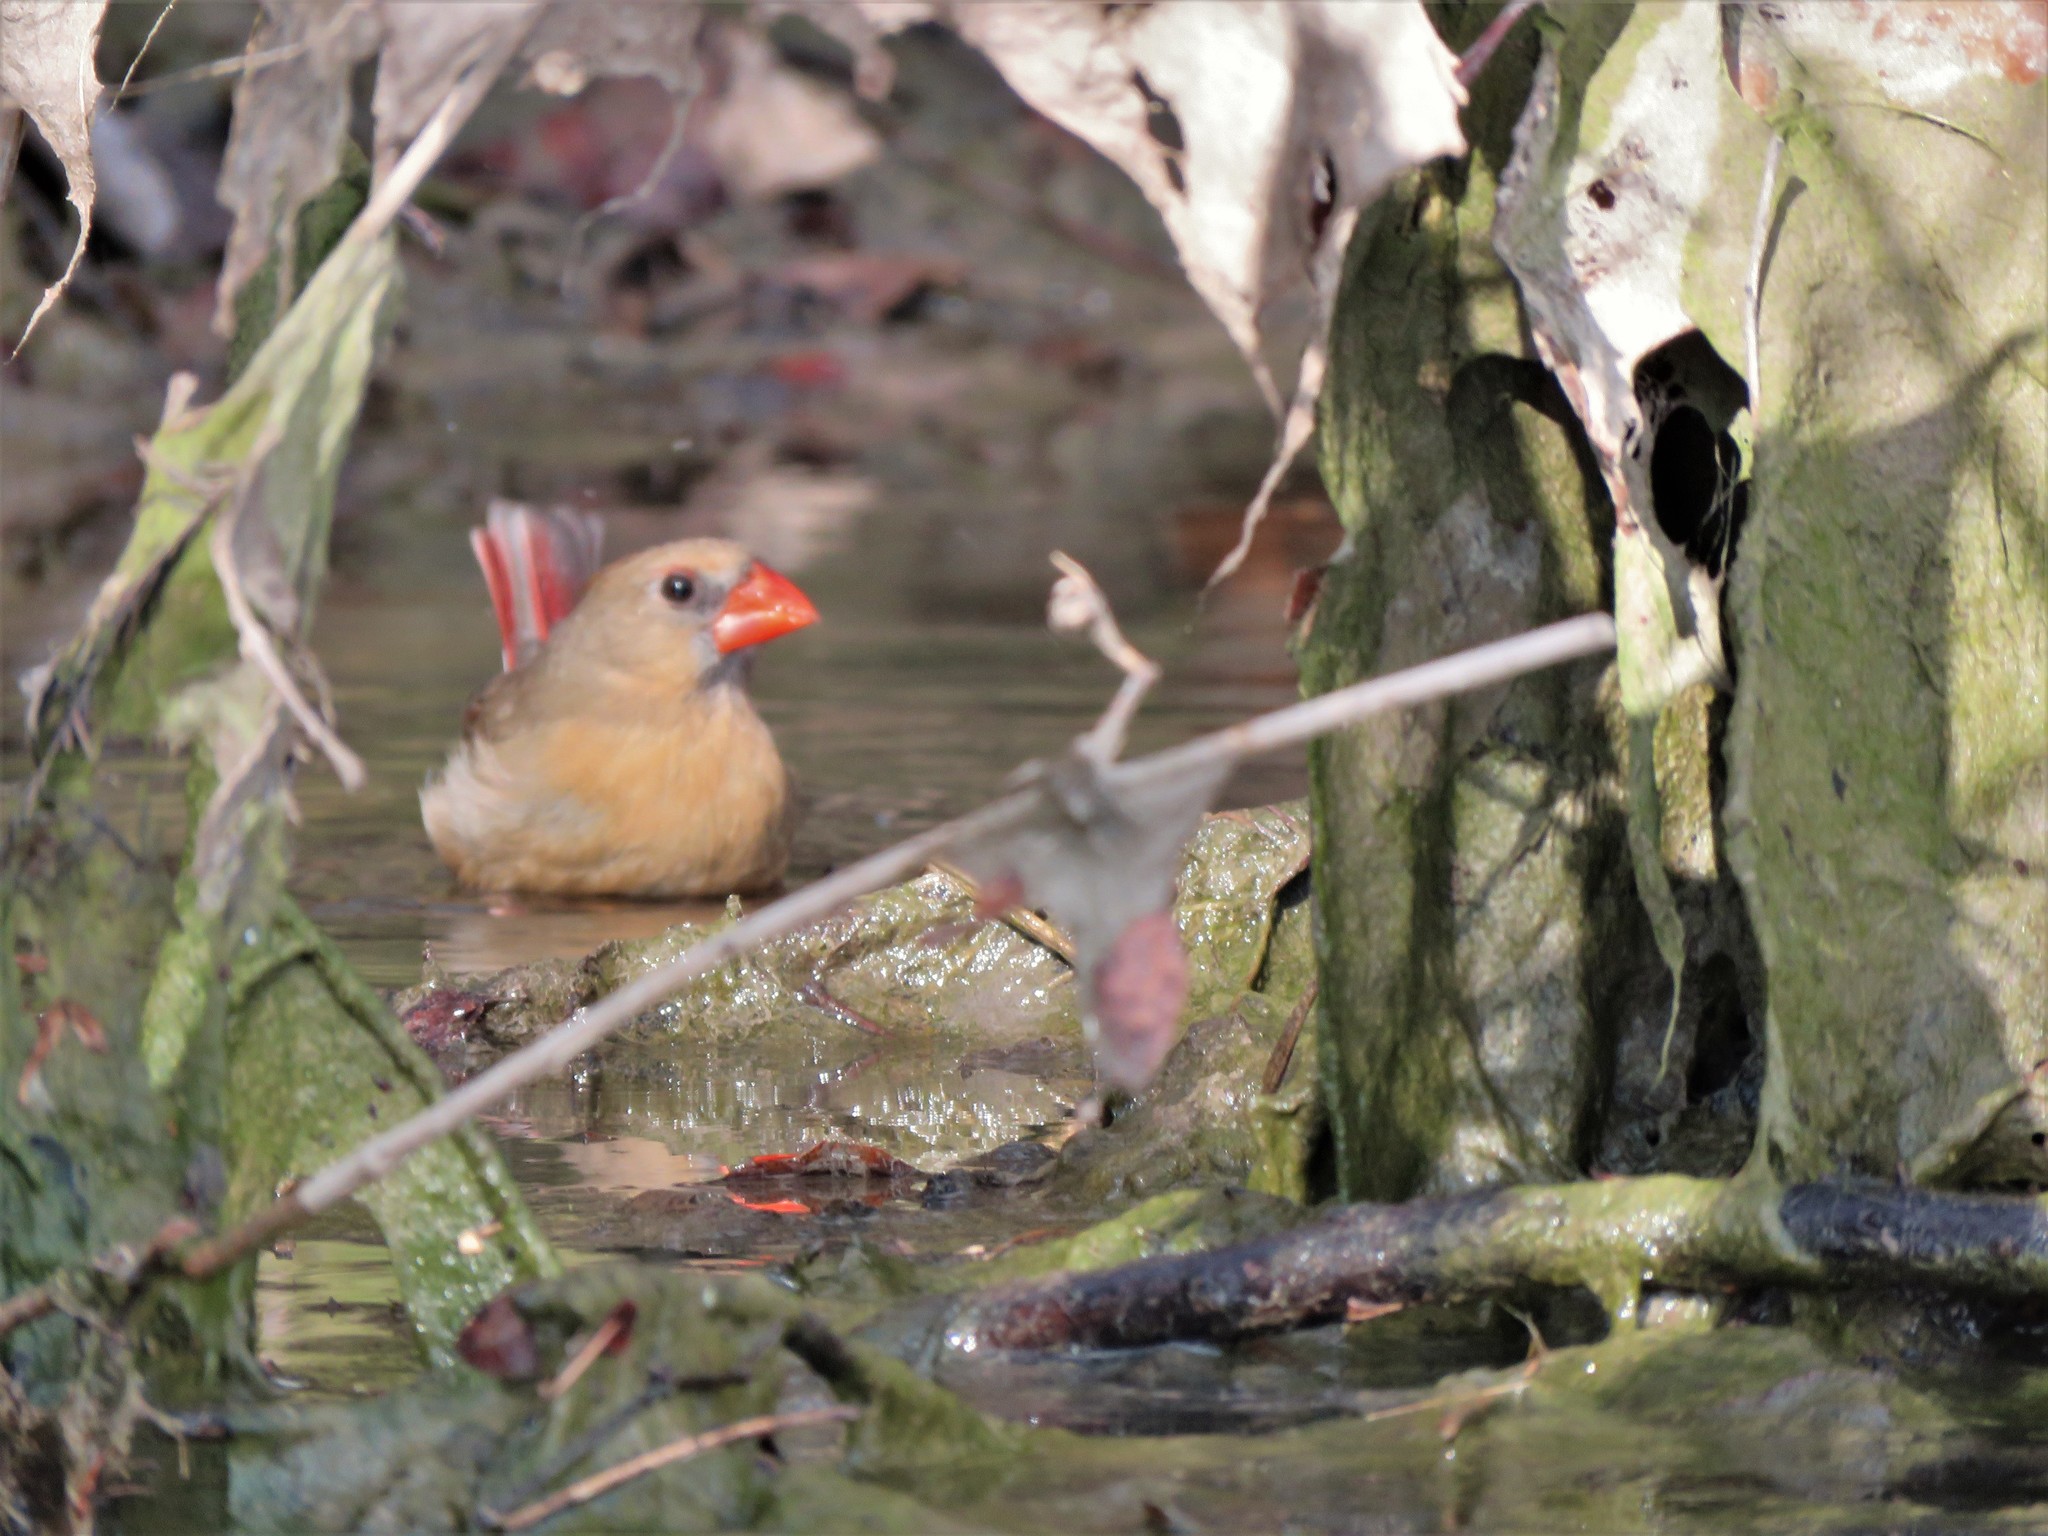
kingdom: Animalia
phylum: Chordata
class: Aves
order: Passeriformes
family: Cardinalidae
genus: Cardinalis
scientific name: Cardinalis cardinalis
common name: Northern cardinal
